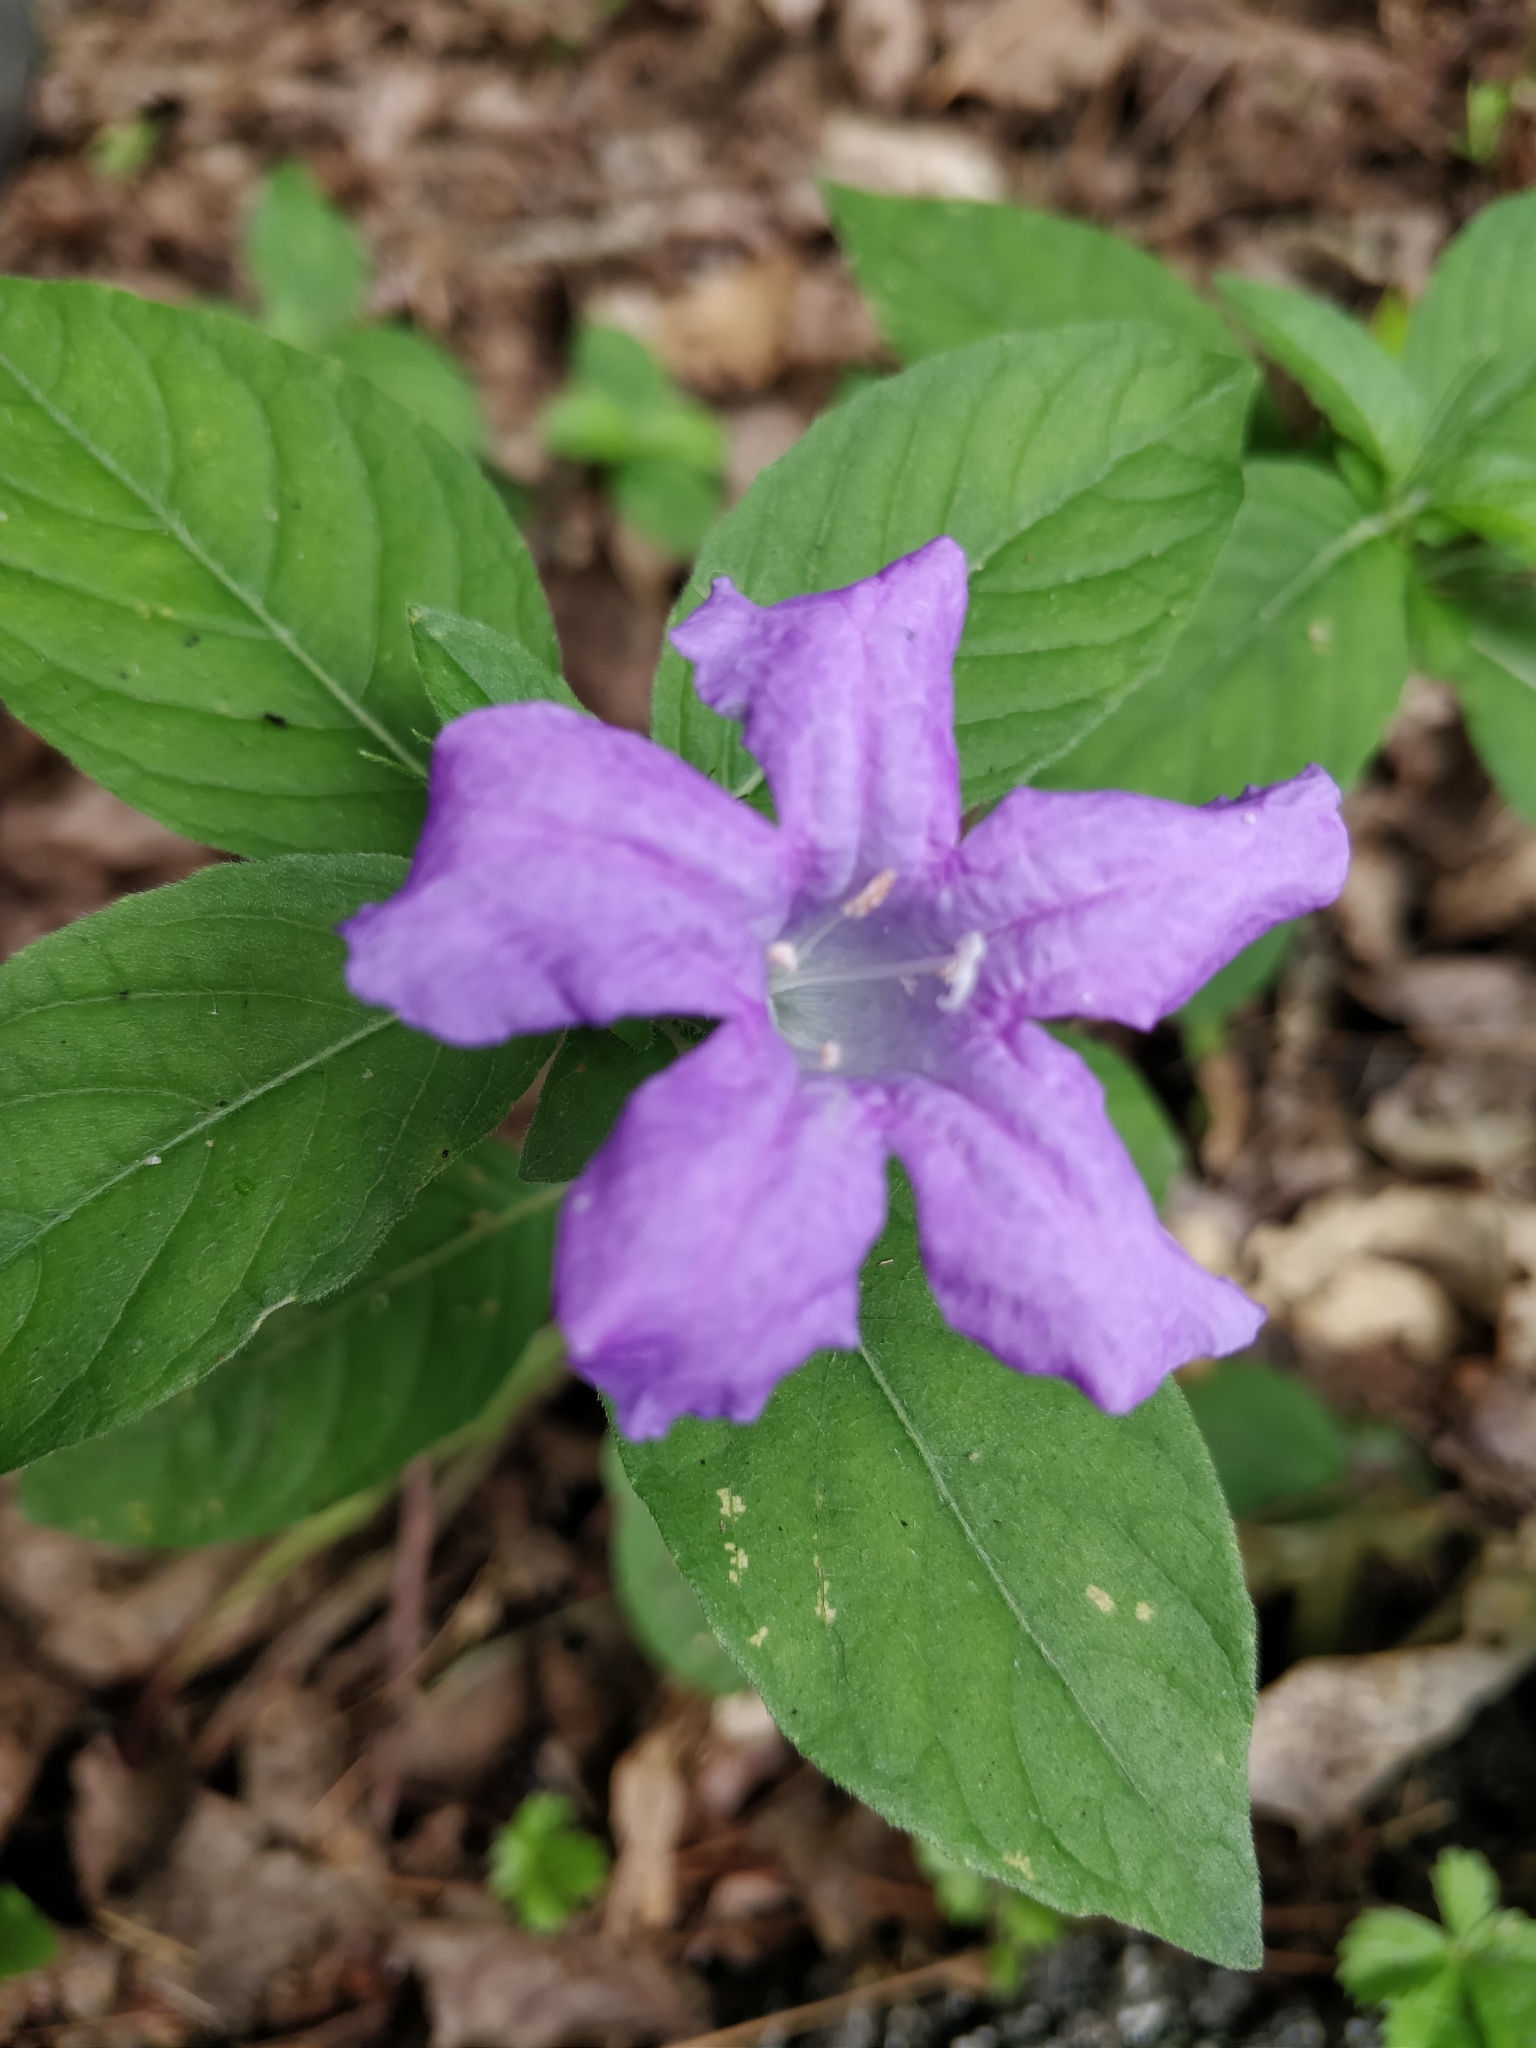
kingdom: Plantae
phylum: Tracheophyta
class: Magnoliopsida
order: Lamiales
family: Acanthaceae
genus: Ruellia
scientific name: Ruellia caroliniensis
